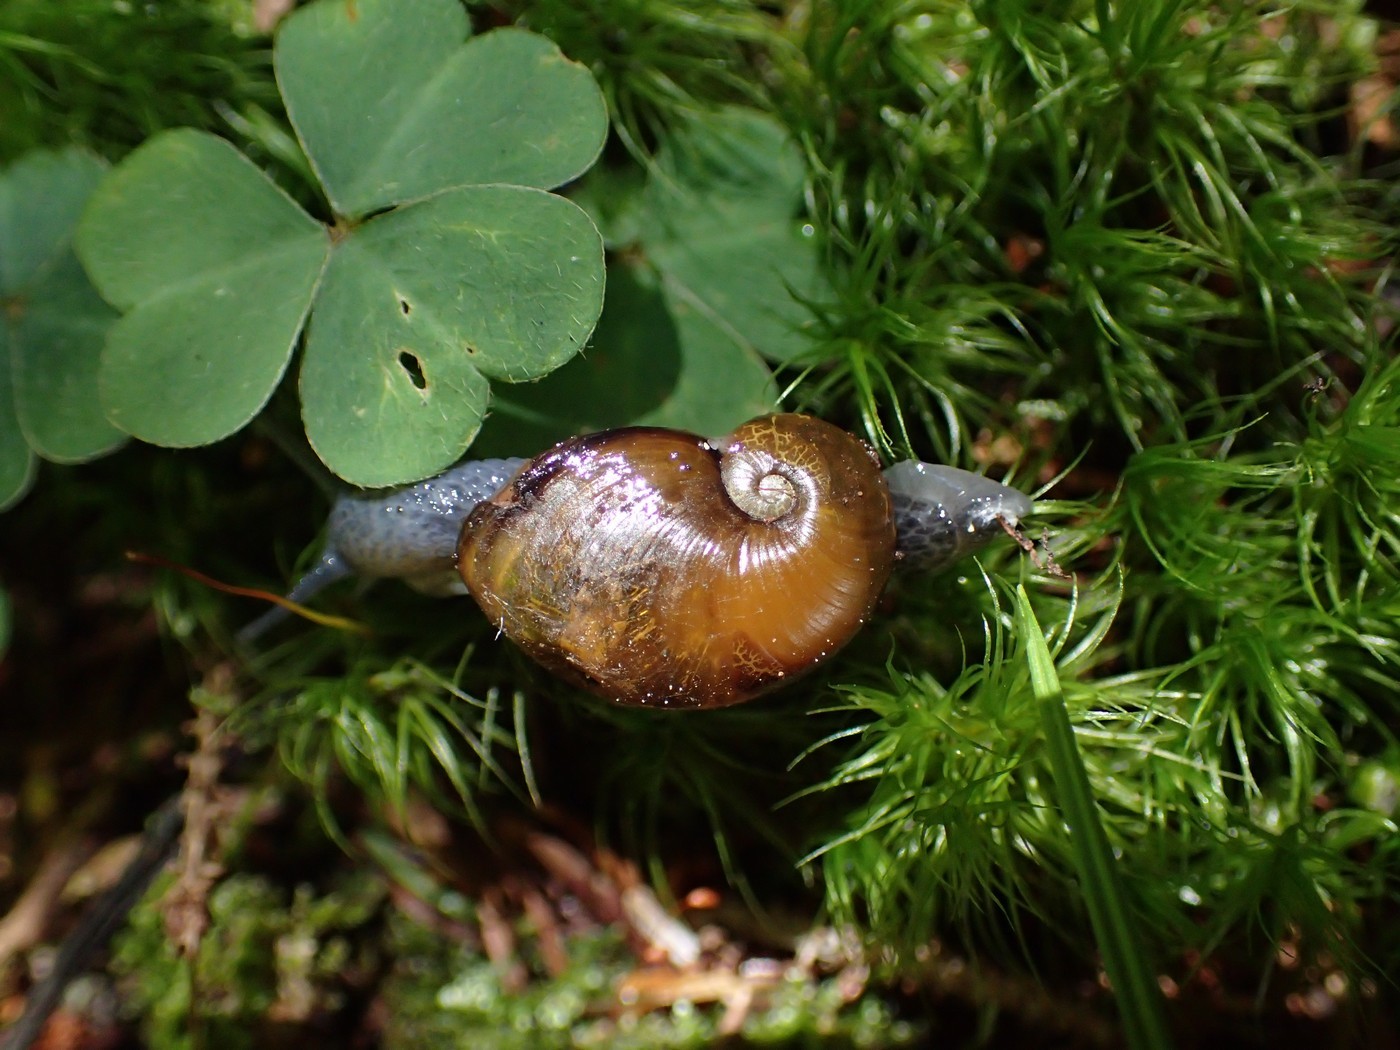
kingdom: Animalia
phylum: Mollusca
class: Gastropoda
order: Stylommatophora
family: Gastrodontidae
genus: Vitrinizonites
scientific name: Vitrinizonites latissimus
